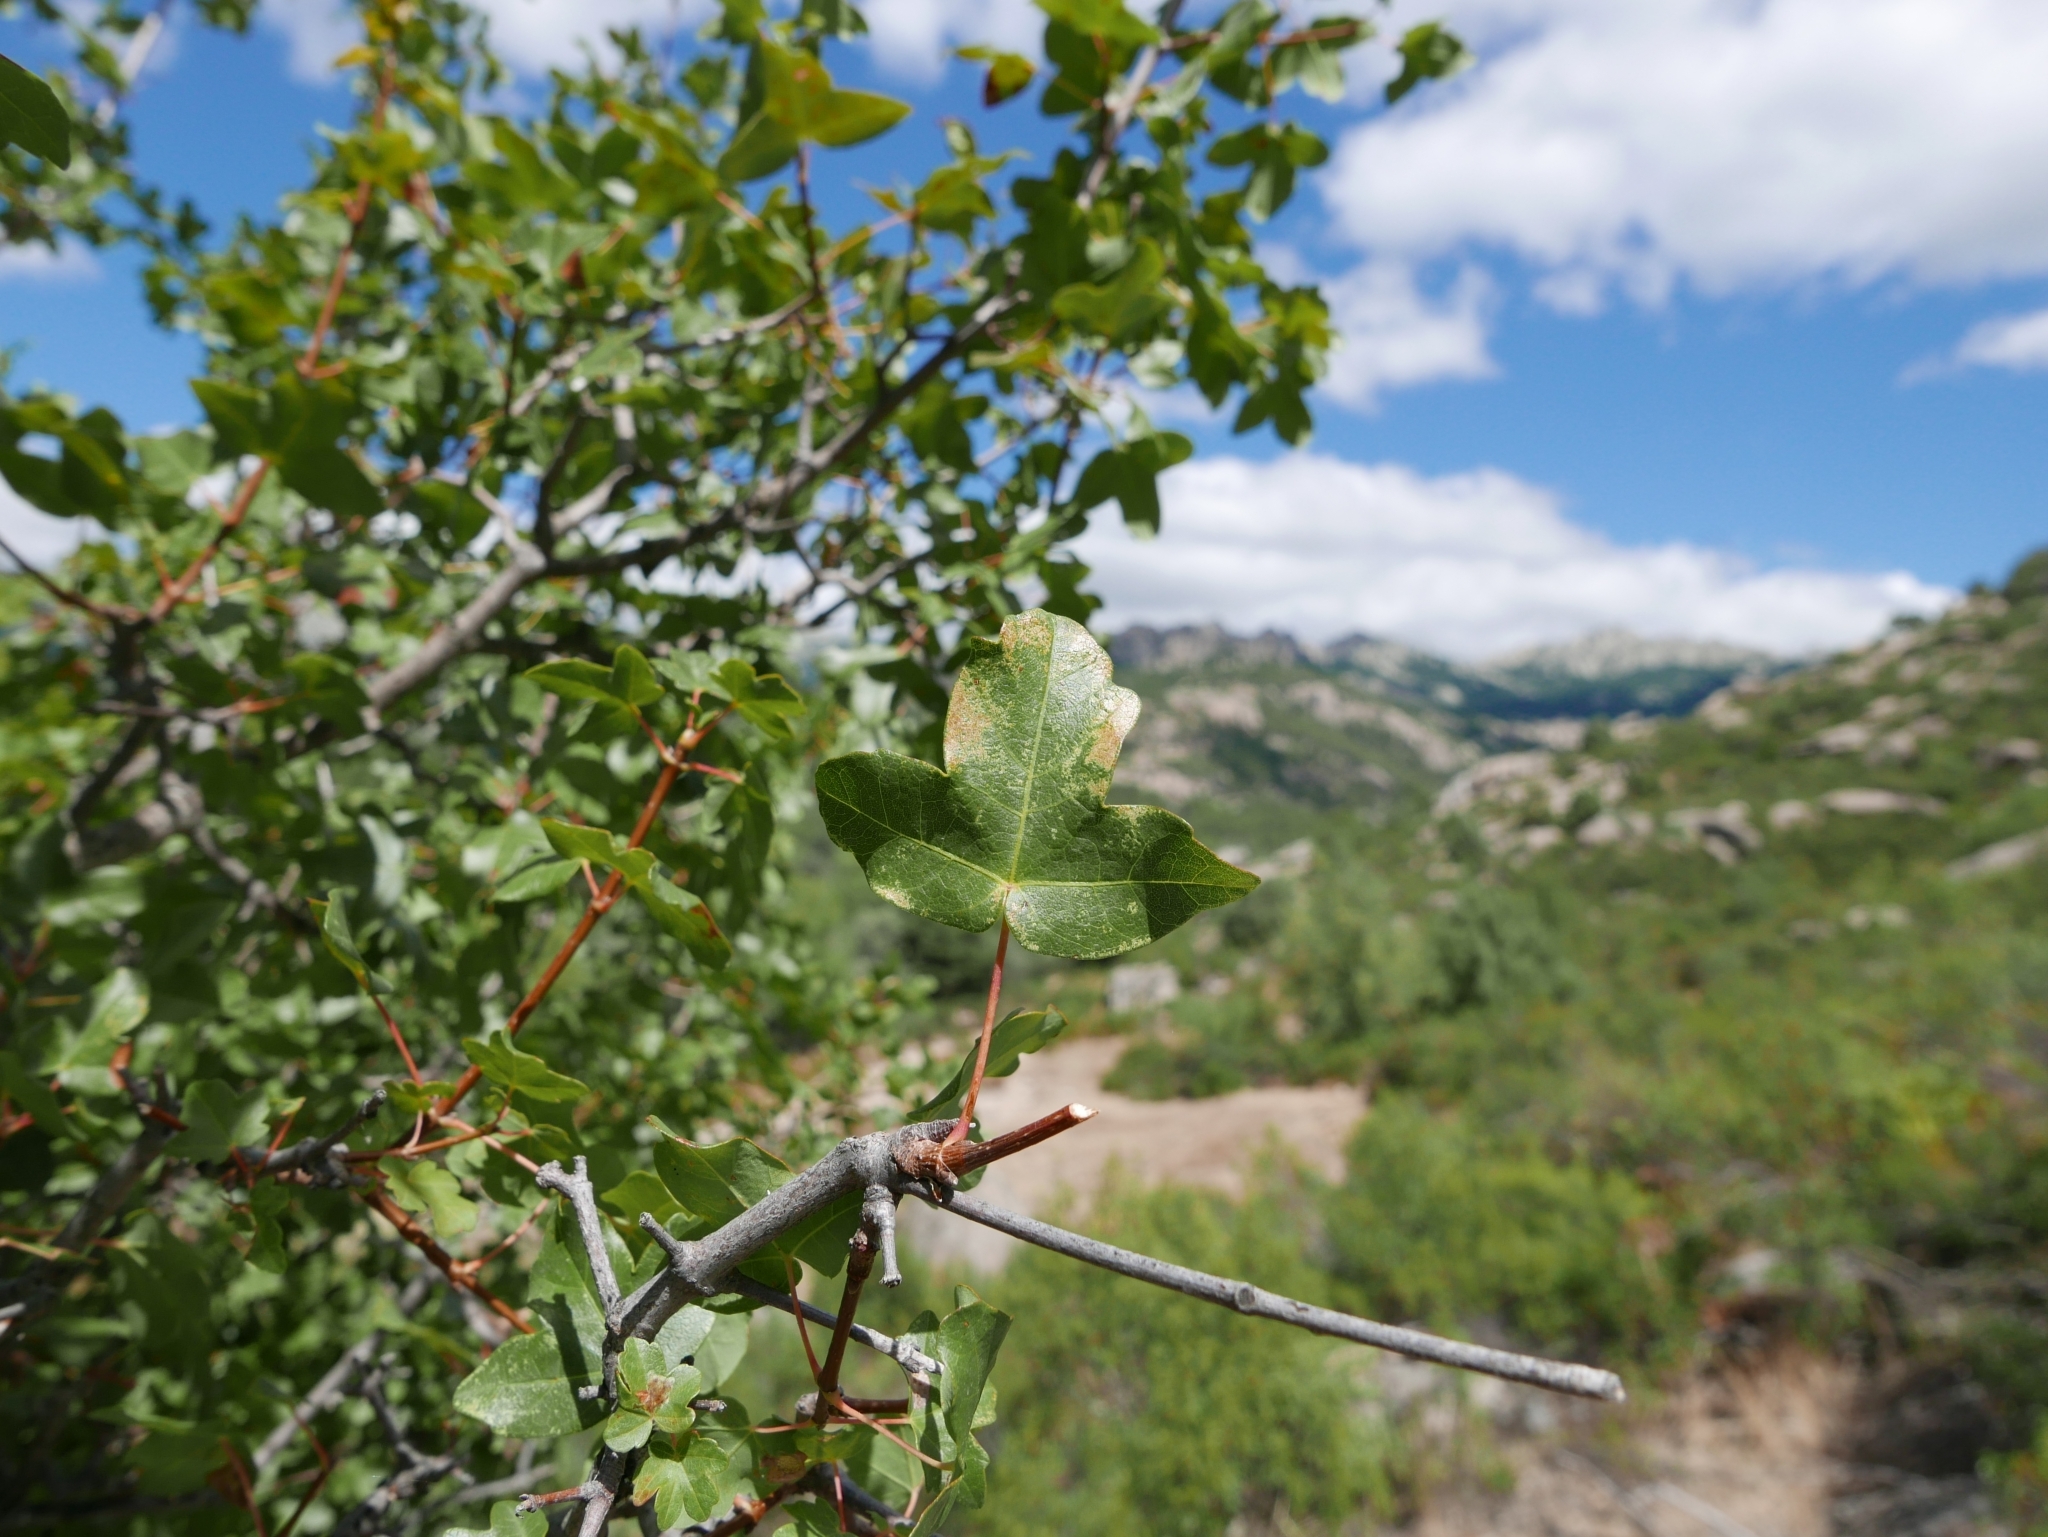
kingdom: Plantae
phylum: Tracheophyta
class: Magnoliopsida
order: Sapindales
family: Sapindaceae
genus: Acer
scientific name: Acer monspessulanum
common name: Montpellier maple
